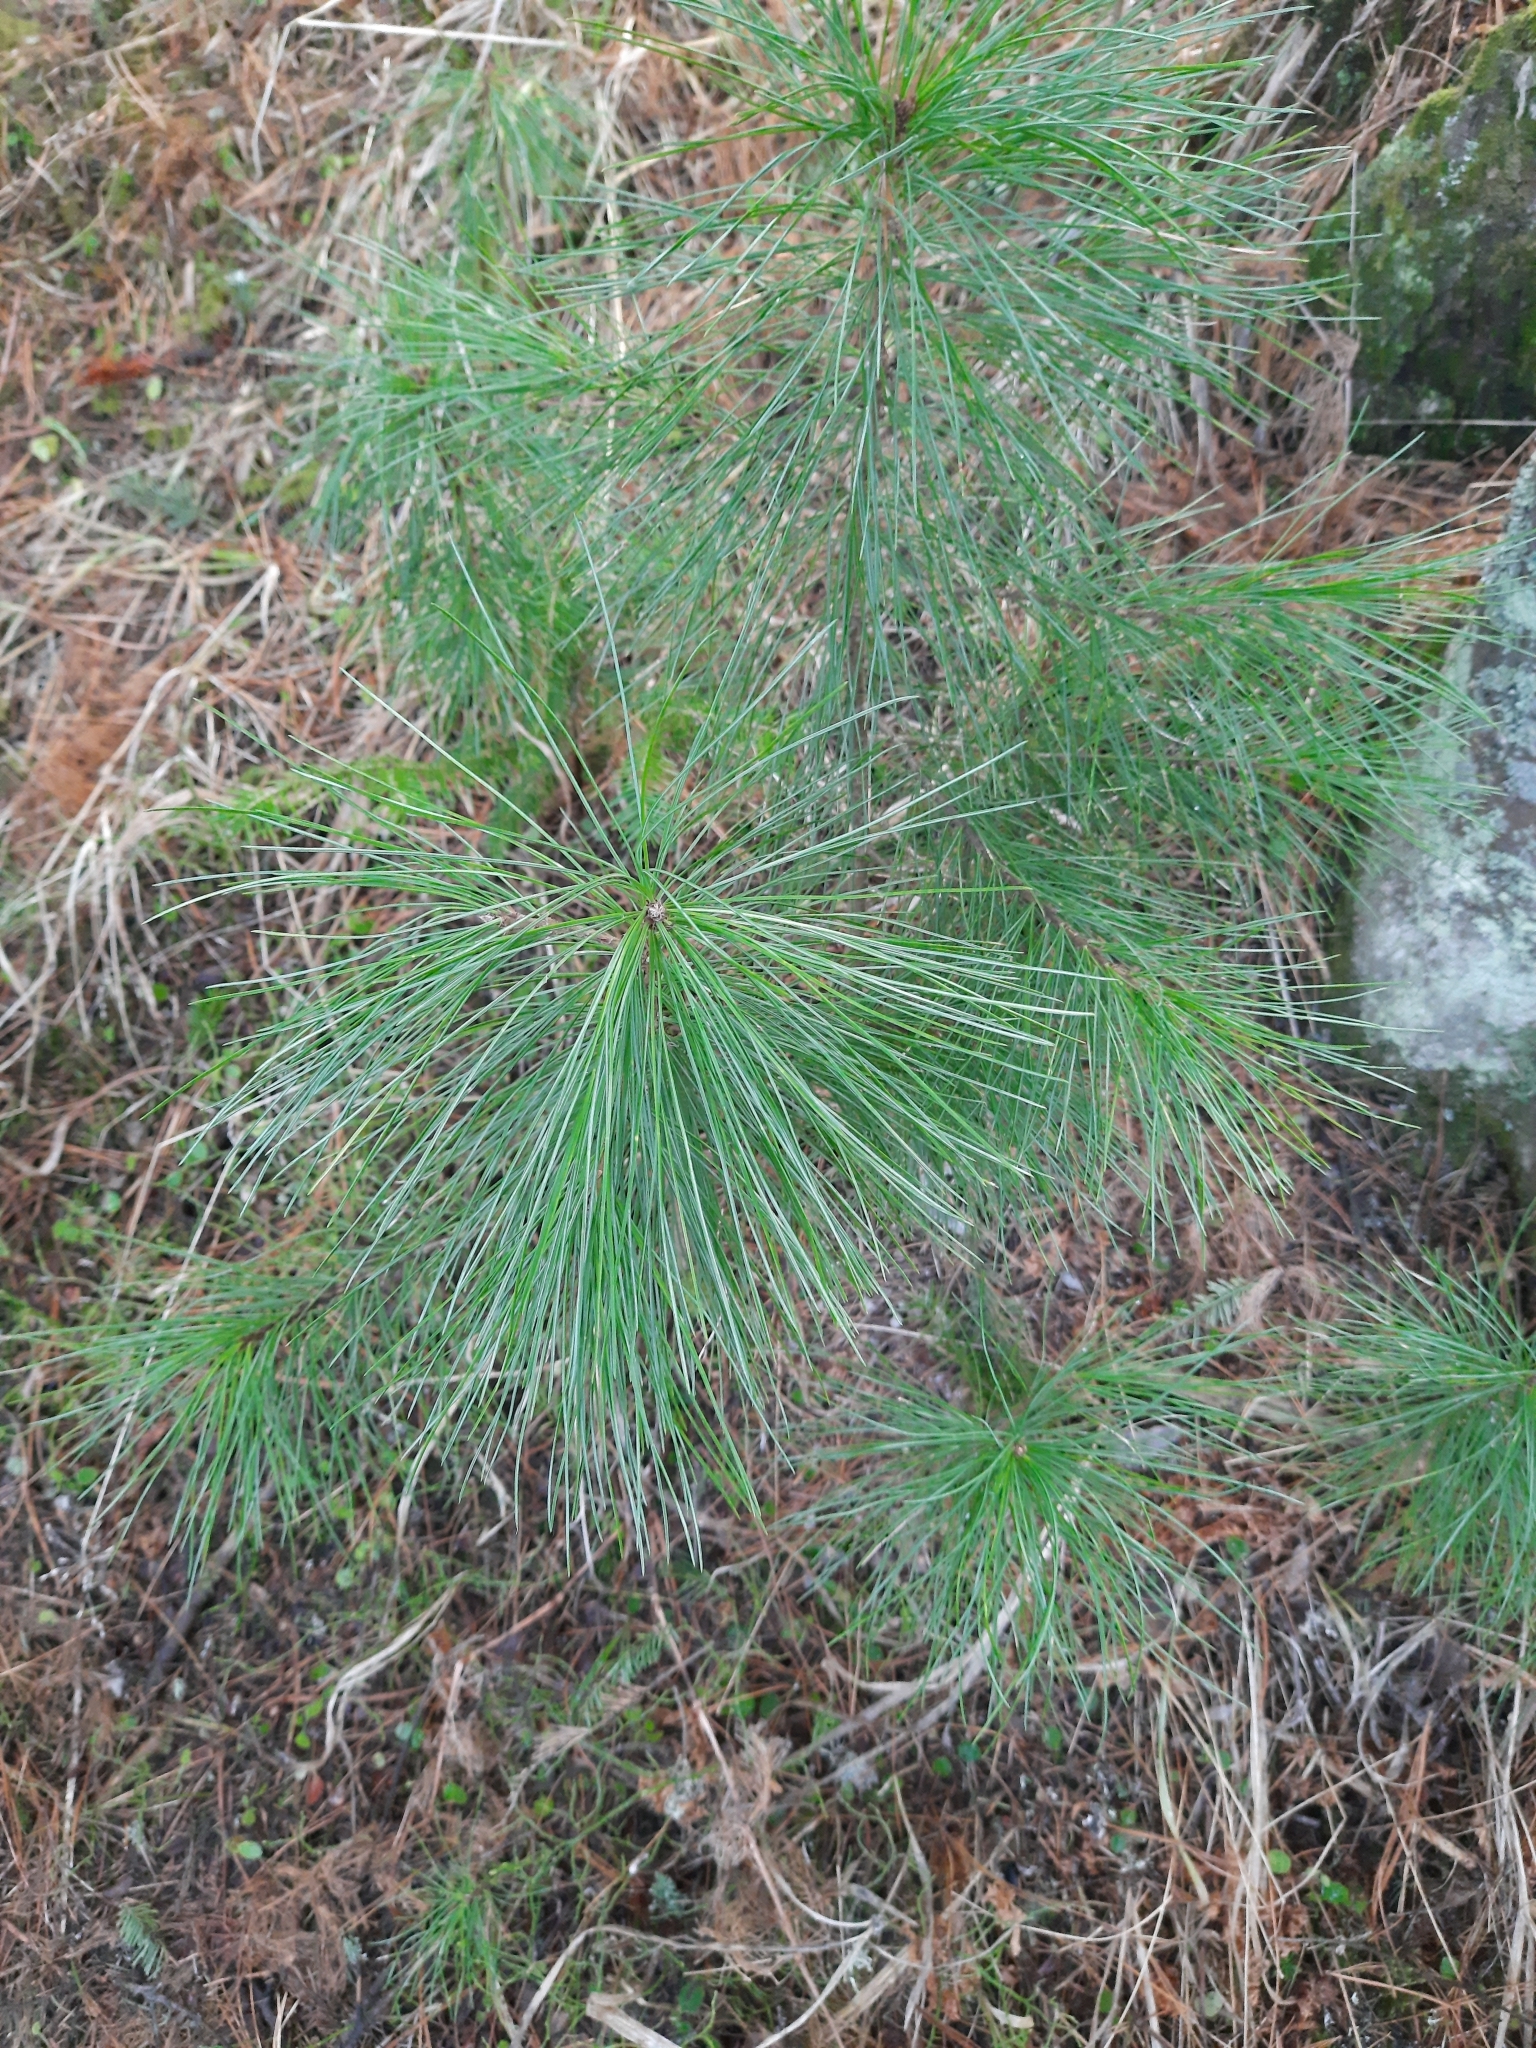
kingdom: Plantae
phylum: Tracheophyta
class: Pinopsida
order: Pinales
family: Pinaceae
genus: Pinus
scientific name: Pinus sibirica
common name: Siberian pine
